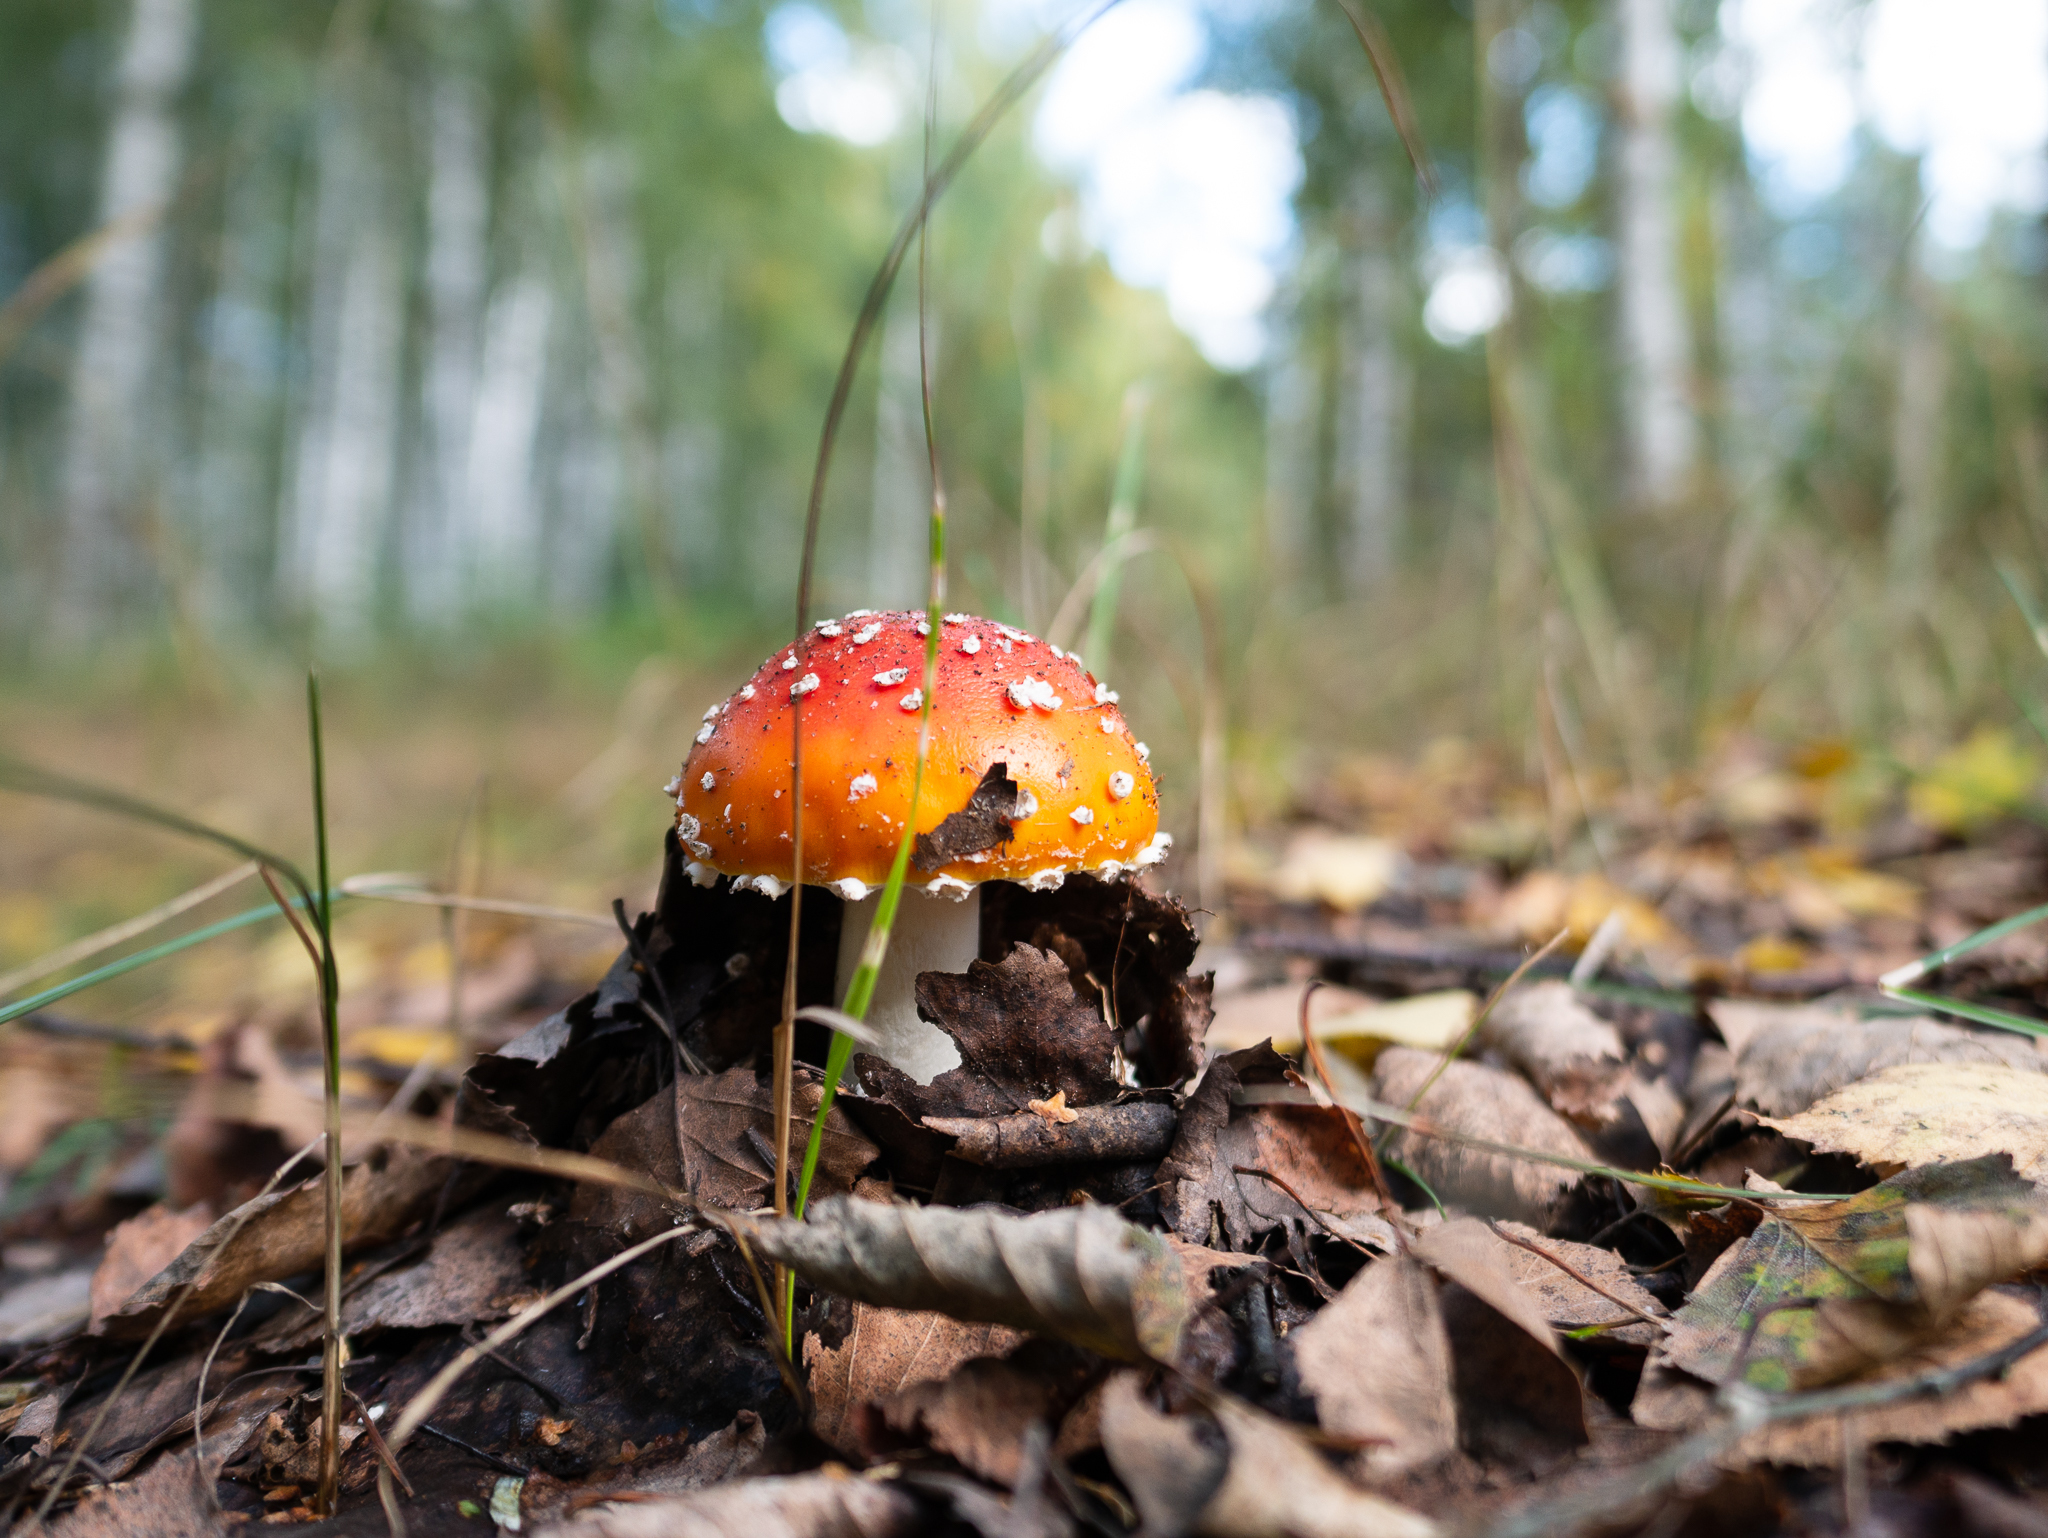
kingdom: Fungi
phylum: Basidiomycota
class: Agaricomycetes
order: Agaricales
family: Amanitaceae
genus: Amanita
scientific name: Amanita muscaria
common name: Fly agaric
